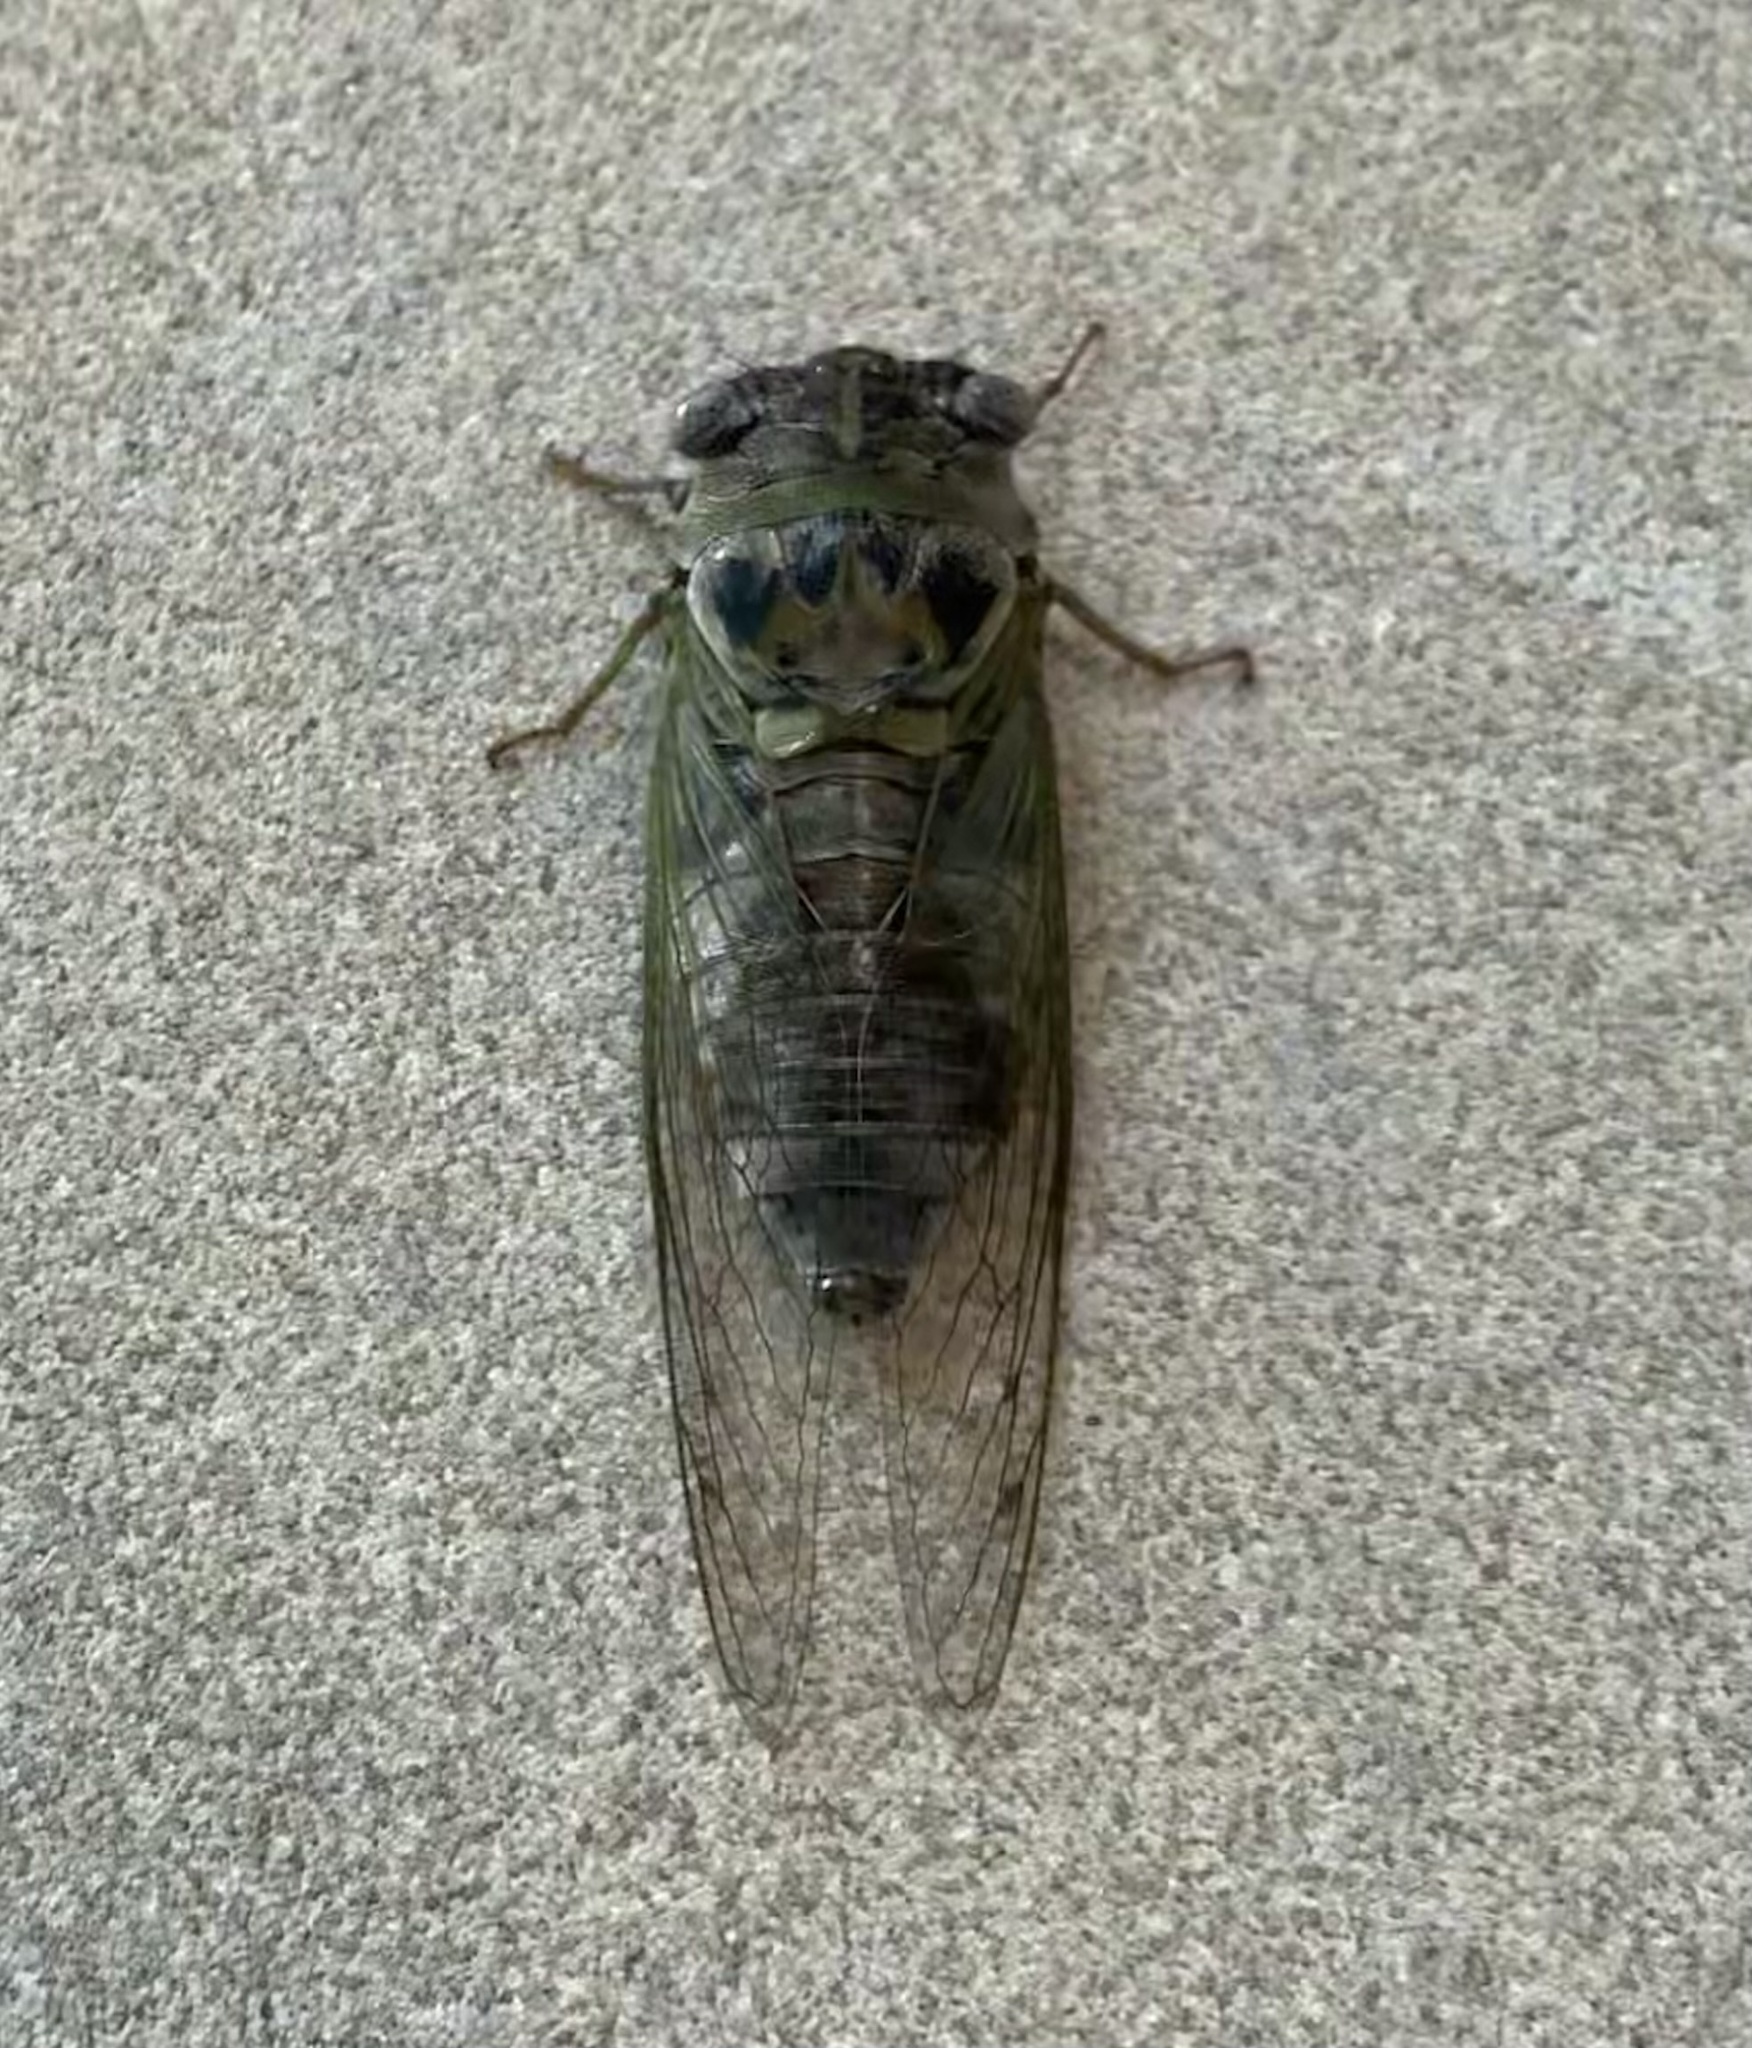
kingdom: Animalia
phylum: Arthropoda
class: Insecta
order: Hemiptera
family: Cicadidae
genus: Diceroprocta
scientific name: Diceroprocta grossa
